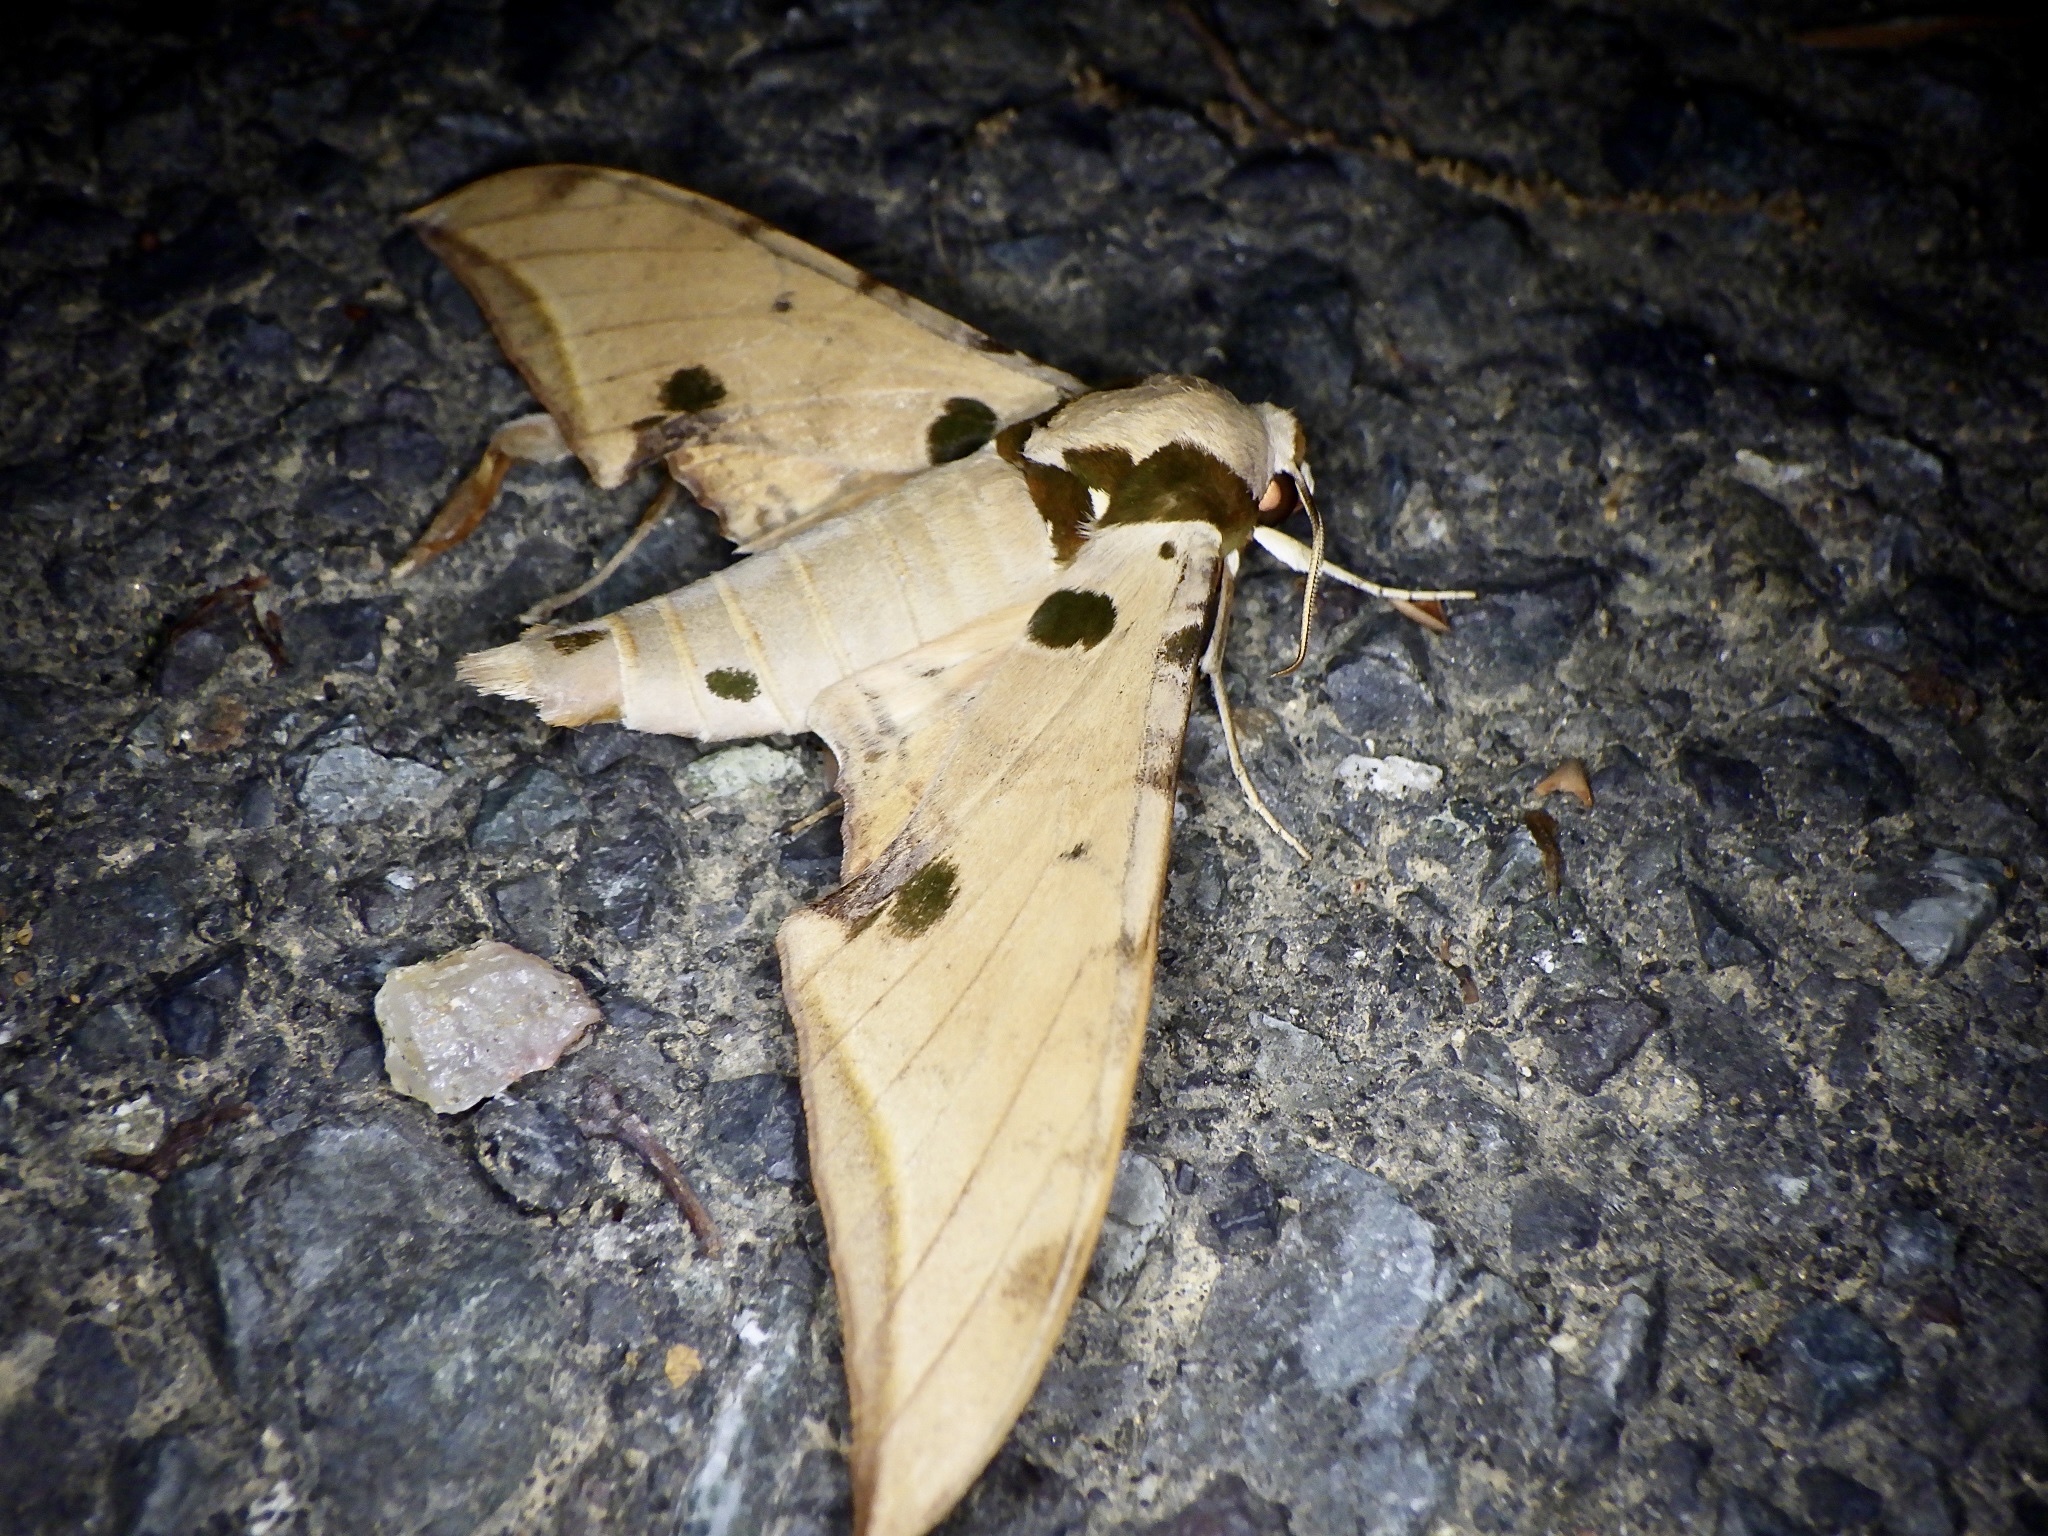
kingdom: Animalia
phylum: Arthropoda
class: Insecta
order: Lepidoptera
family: Sphingidae
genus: Ambulyx
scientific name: Ambulyx ochracea
